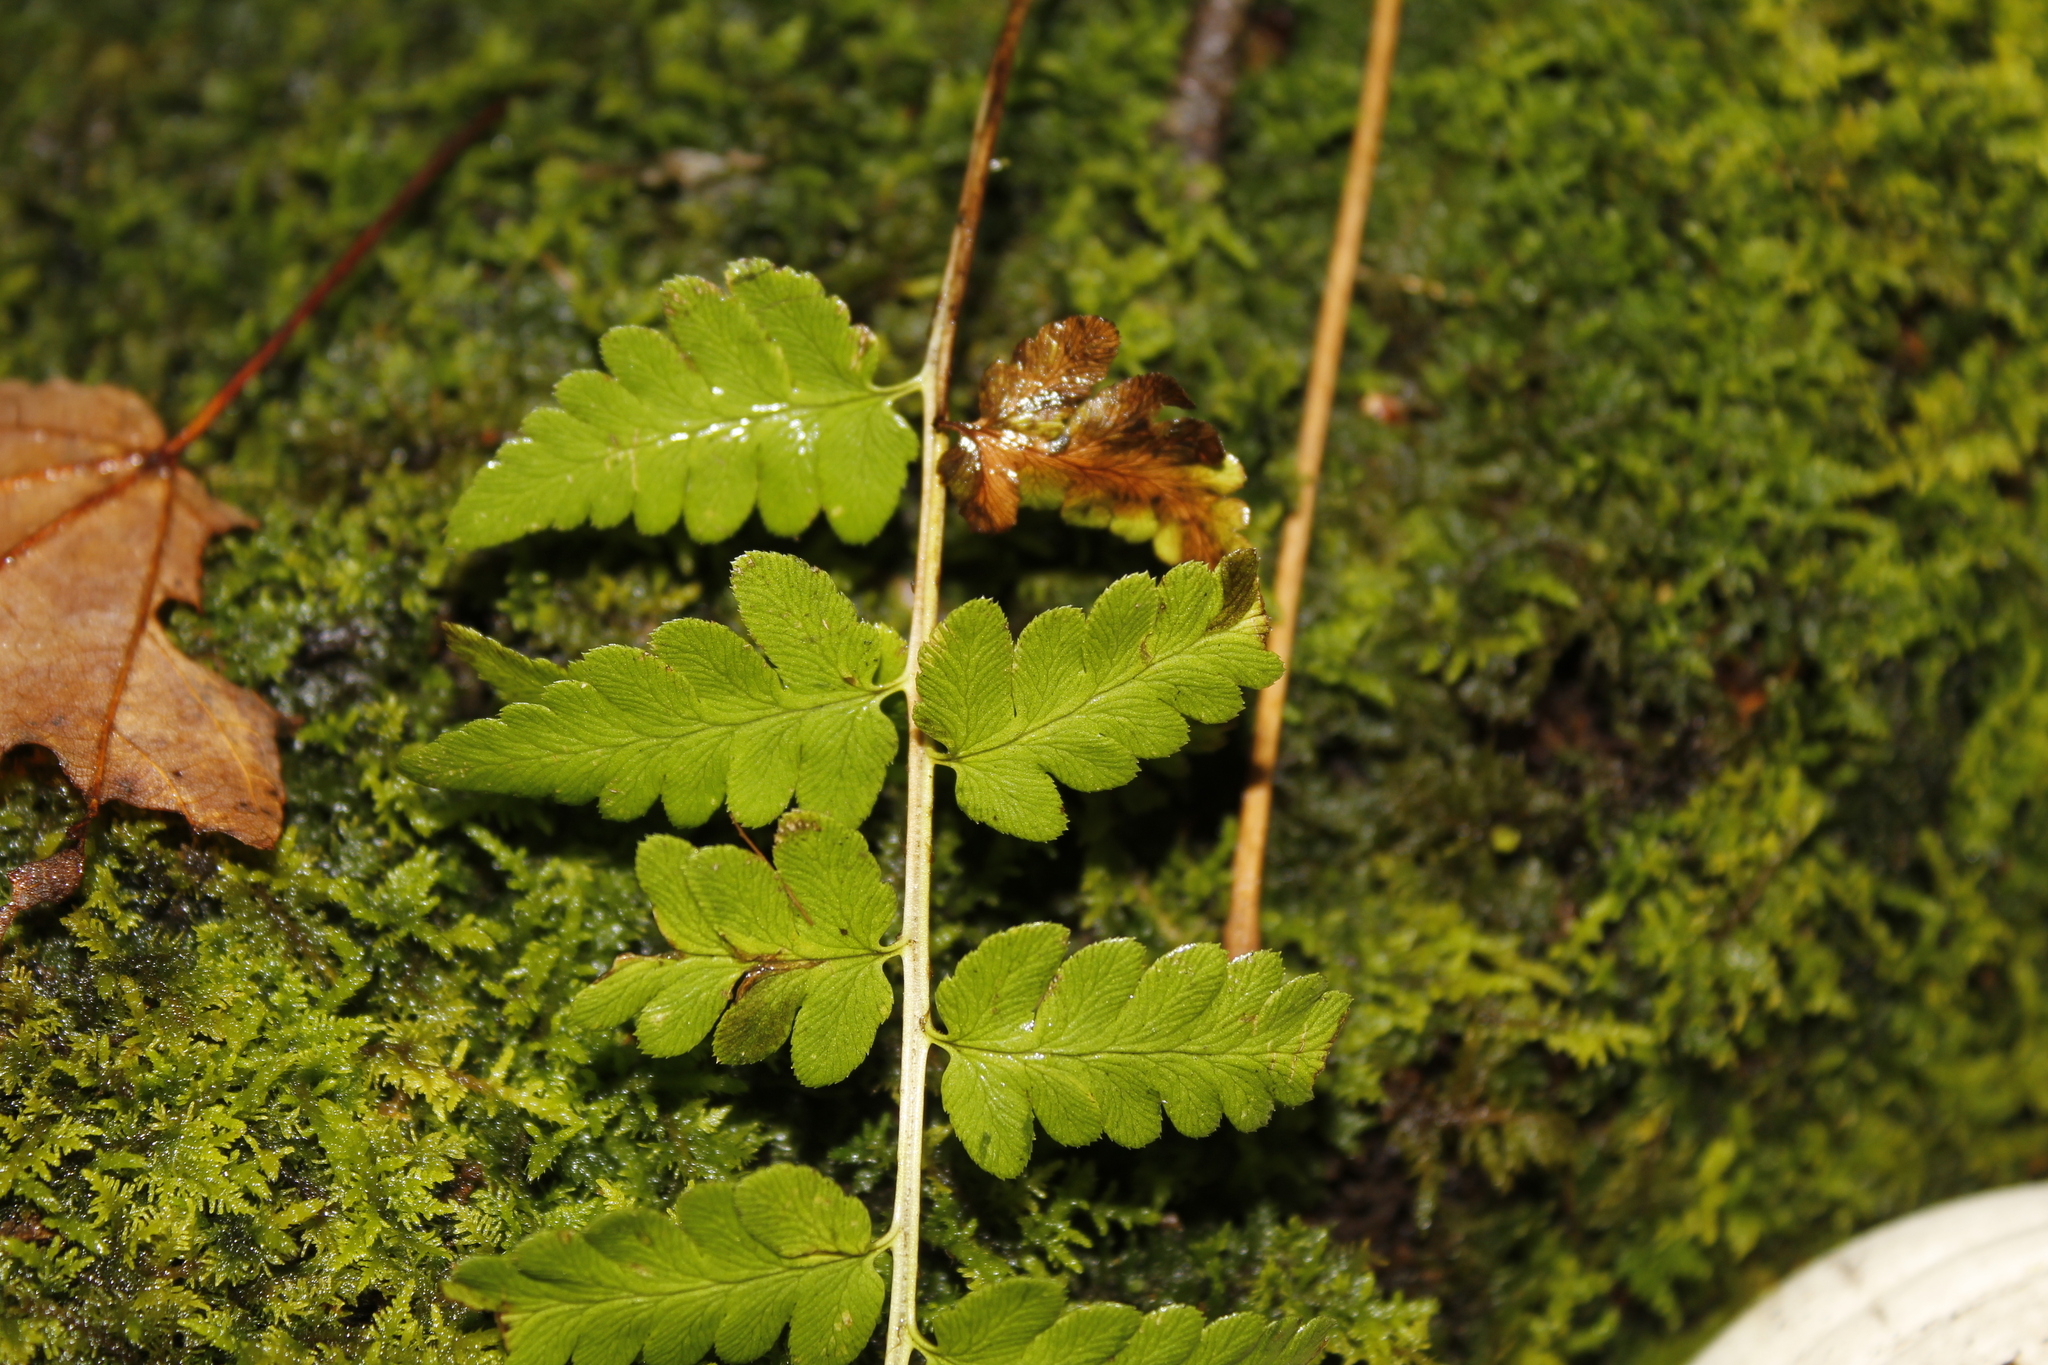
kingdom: Plantae
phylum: Tracheophyta
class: Polypodiopsida
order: Polypodiales
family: Dryopteridaceae
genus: Dryopteris
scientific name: Dryopteris cristata
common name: Crested wood fern
